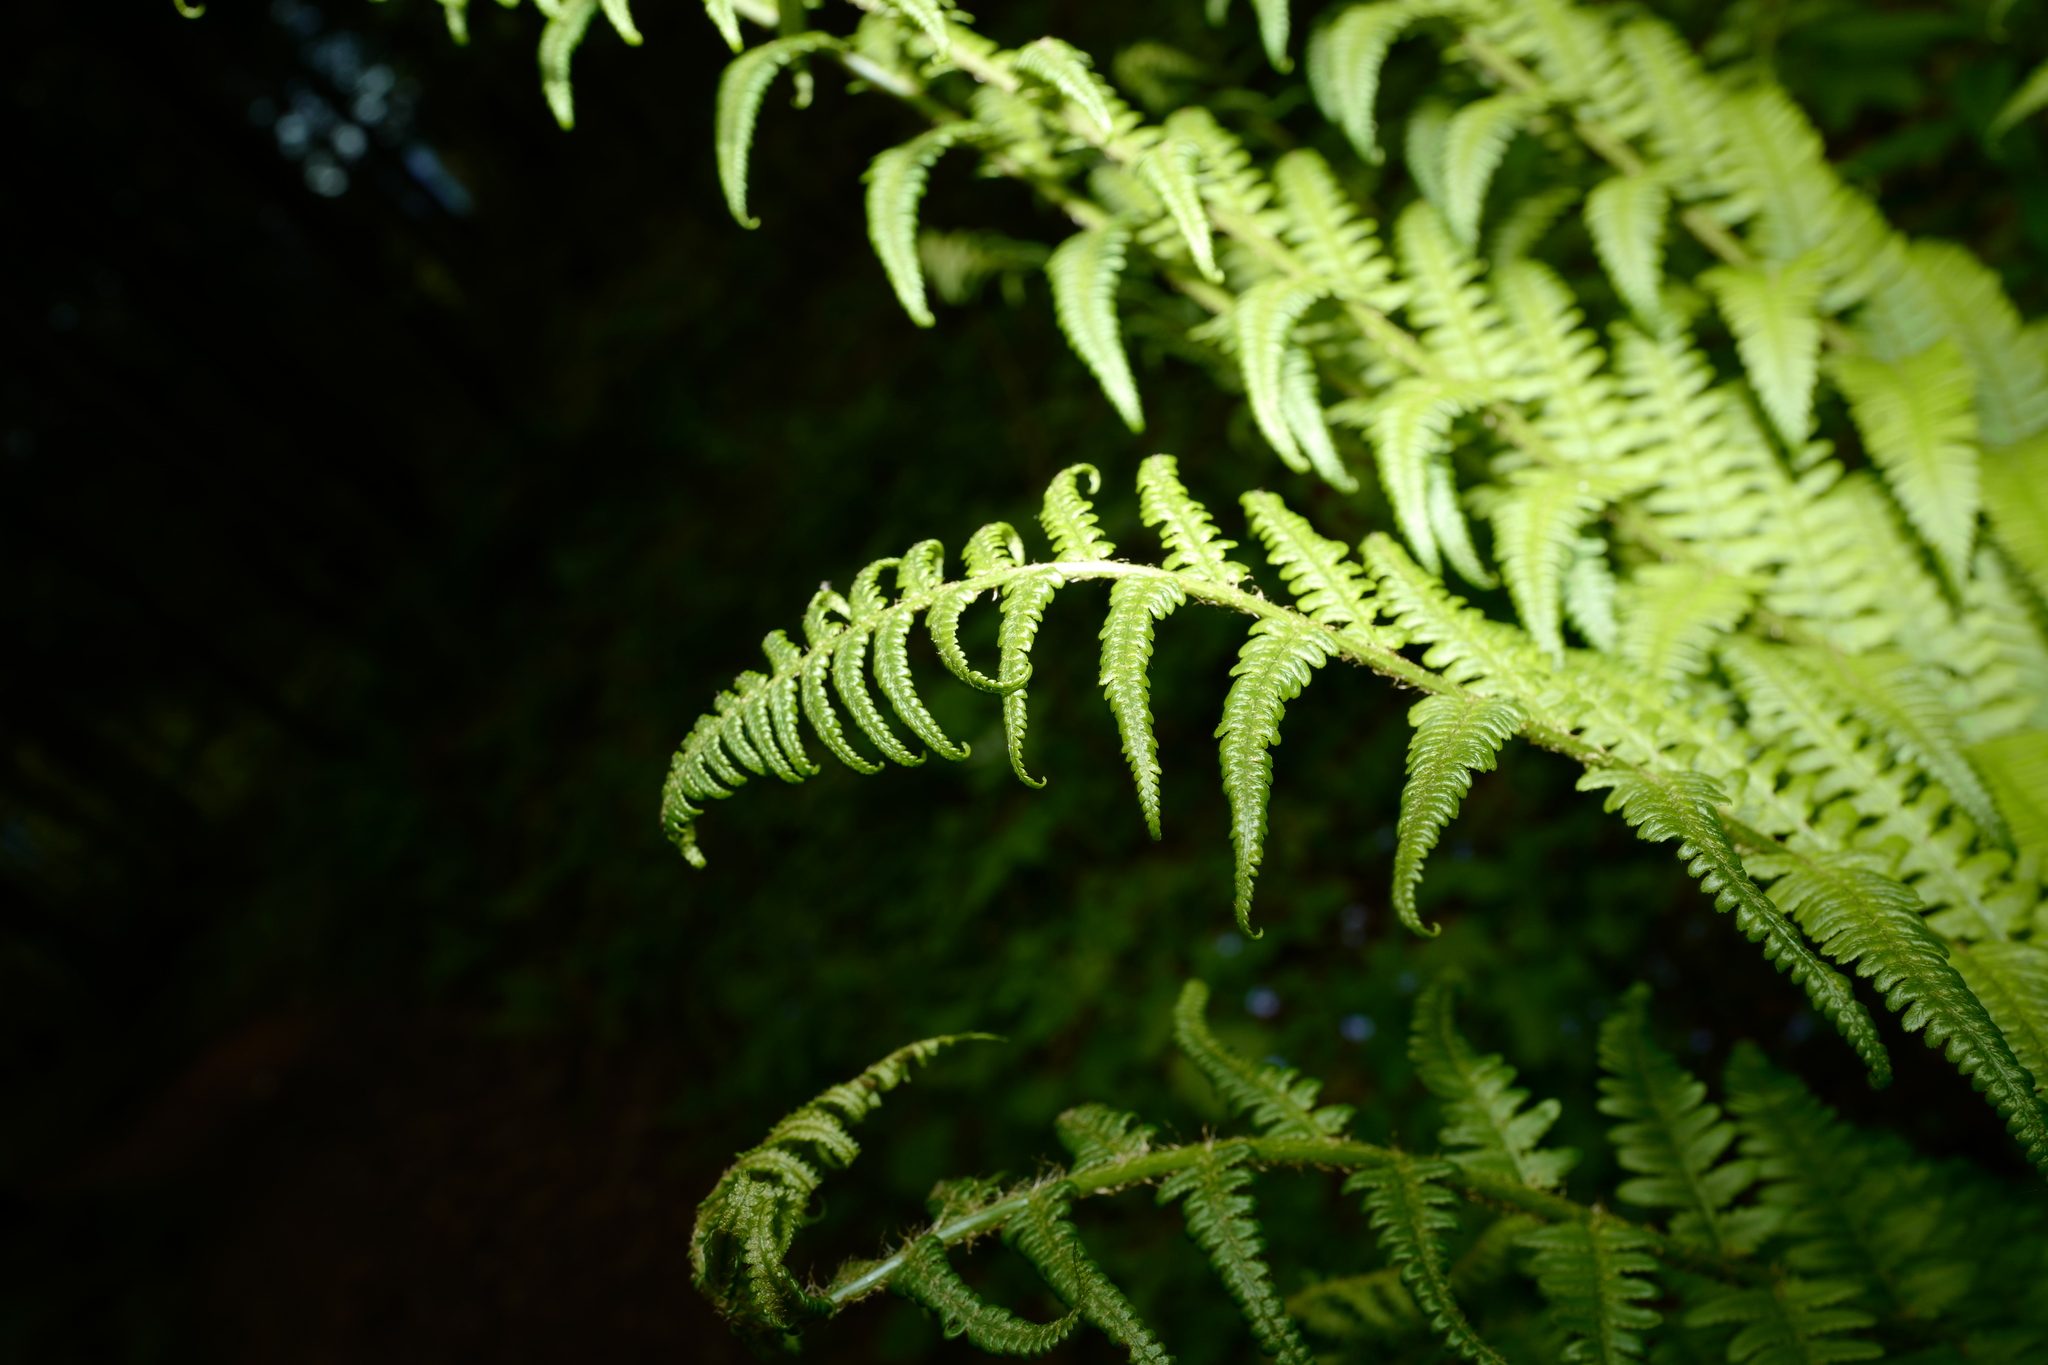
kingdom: Plantae
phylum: Tracheophyta
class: Polypodiopsida
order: Polypodiales
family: Dryopteridaceae
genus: Dryopteris
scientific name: Dryopteris filix-mas
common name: Male fern
